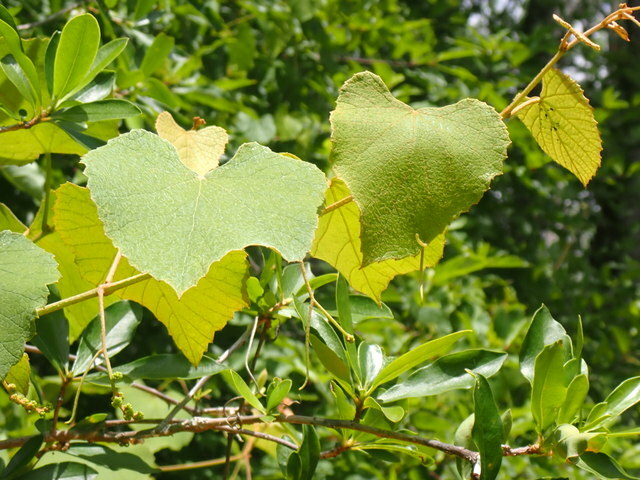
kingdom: Plantae
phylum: Tracheophyta
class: Magnoliopsida
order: Vitales
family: Vitaceae
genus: Vitis
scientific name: Vitis cinerea
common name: Ashy grape
